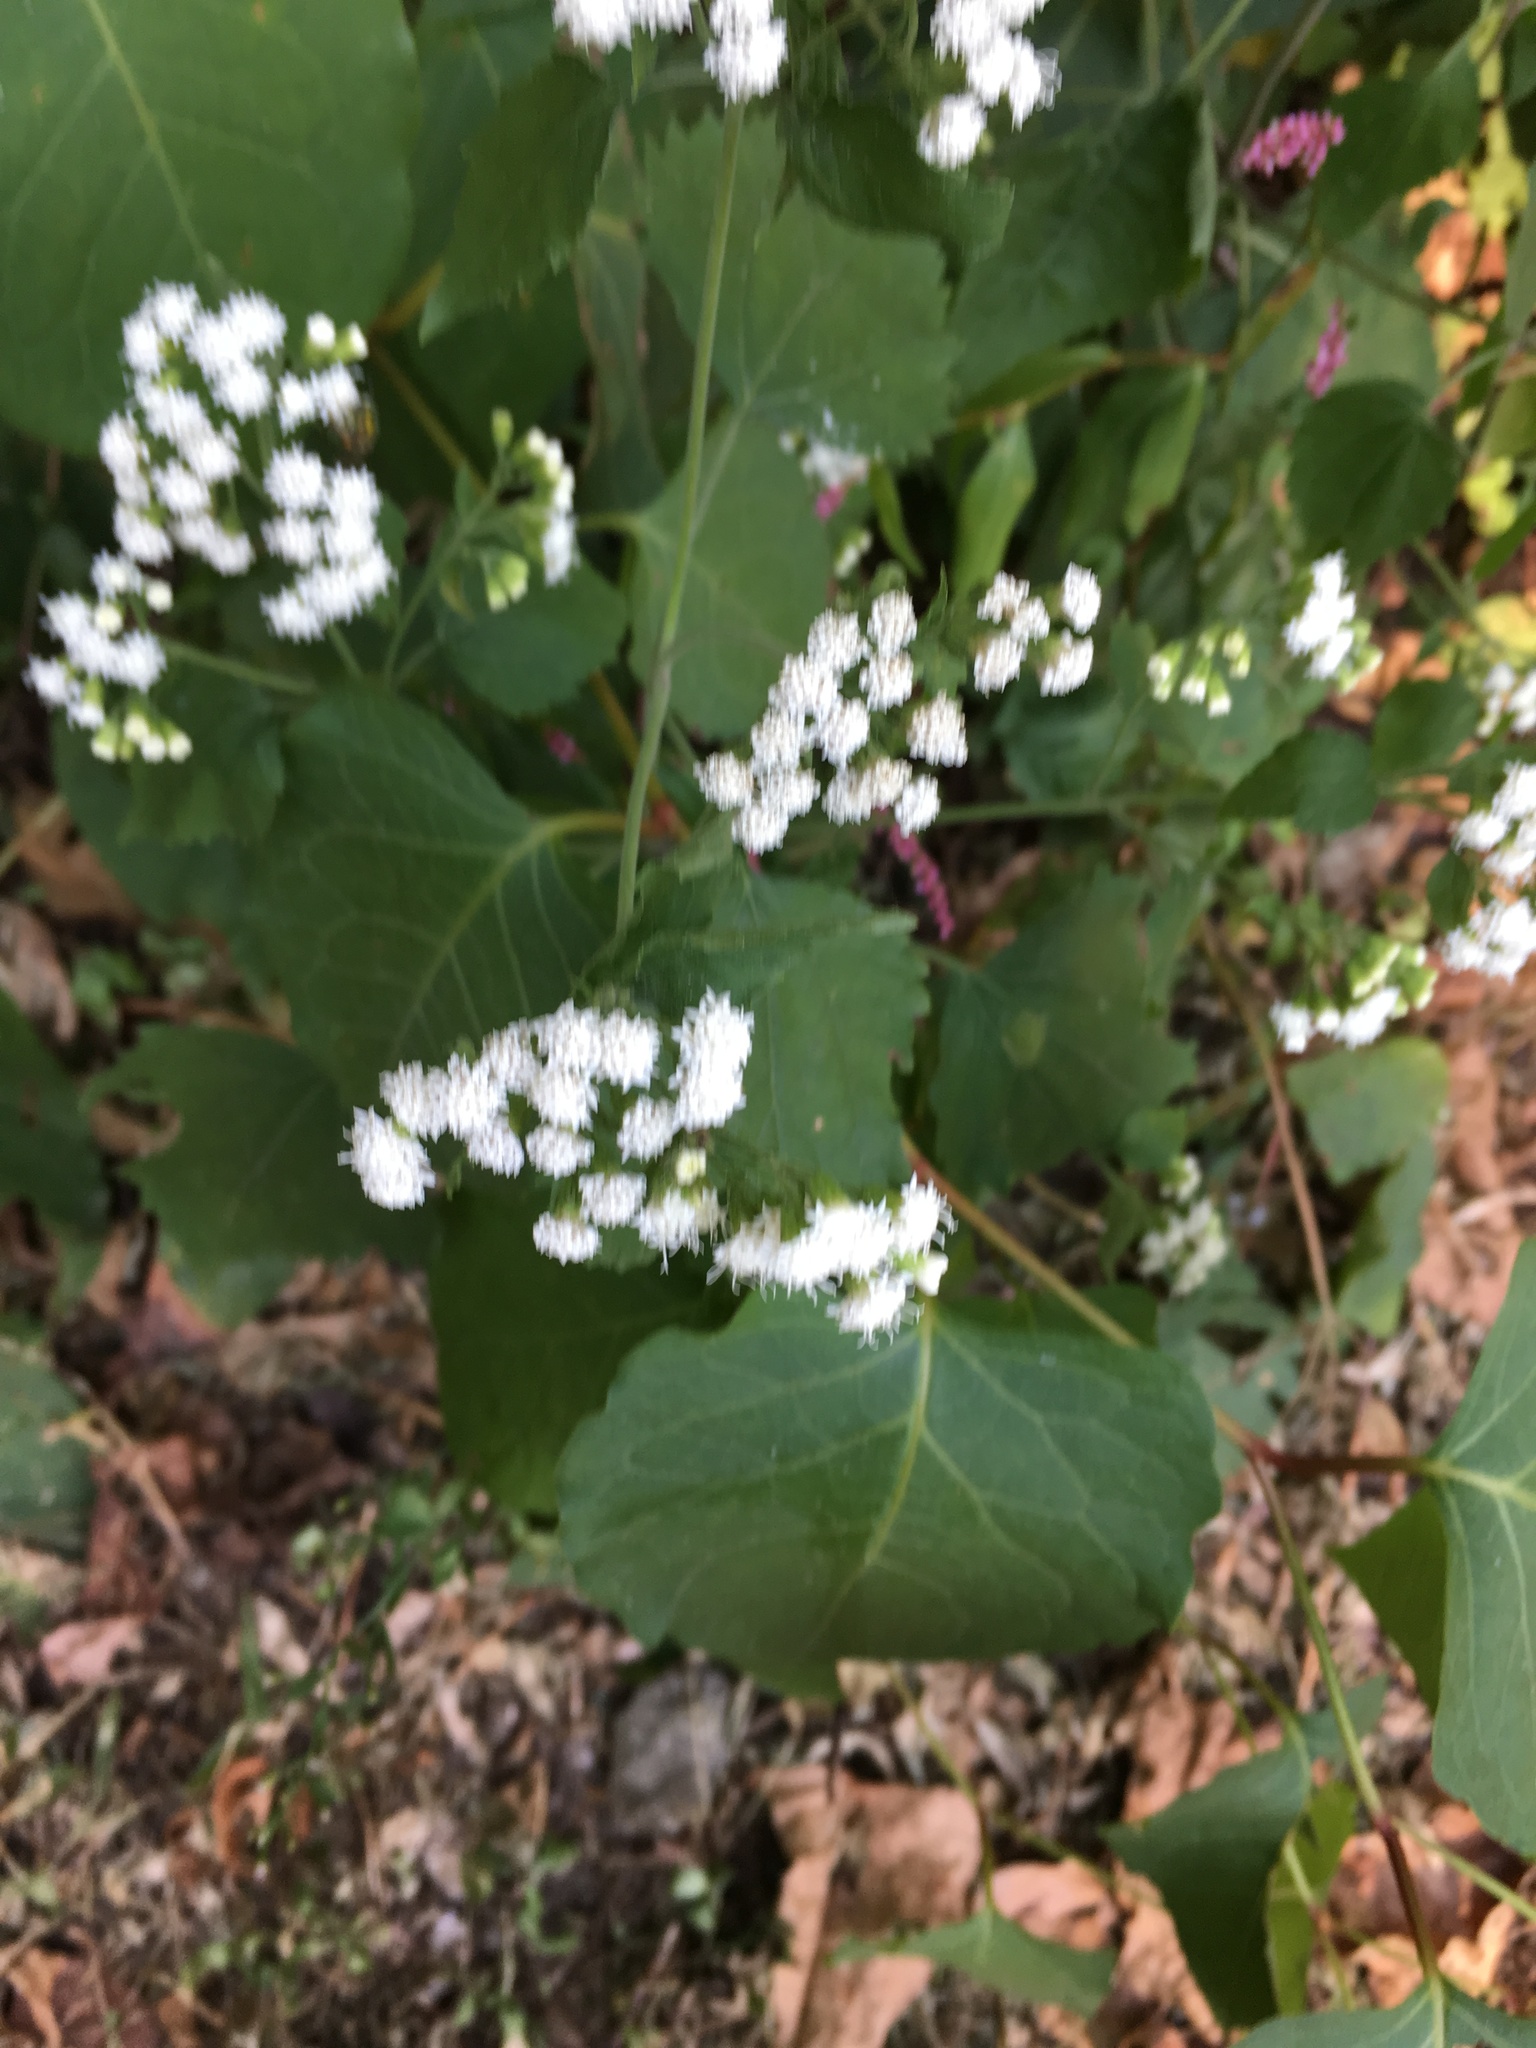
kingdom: Plantae
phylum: Tracheophyta
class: Magnoliopsida
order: Asterales
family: Asteraceae
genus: Ageratina
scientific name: Ageratina altissima
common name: White snakeroot
